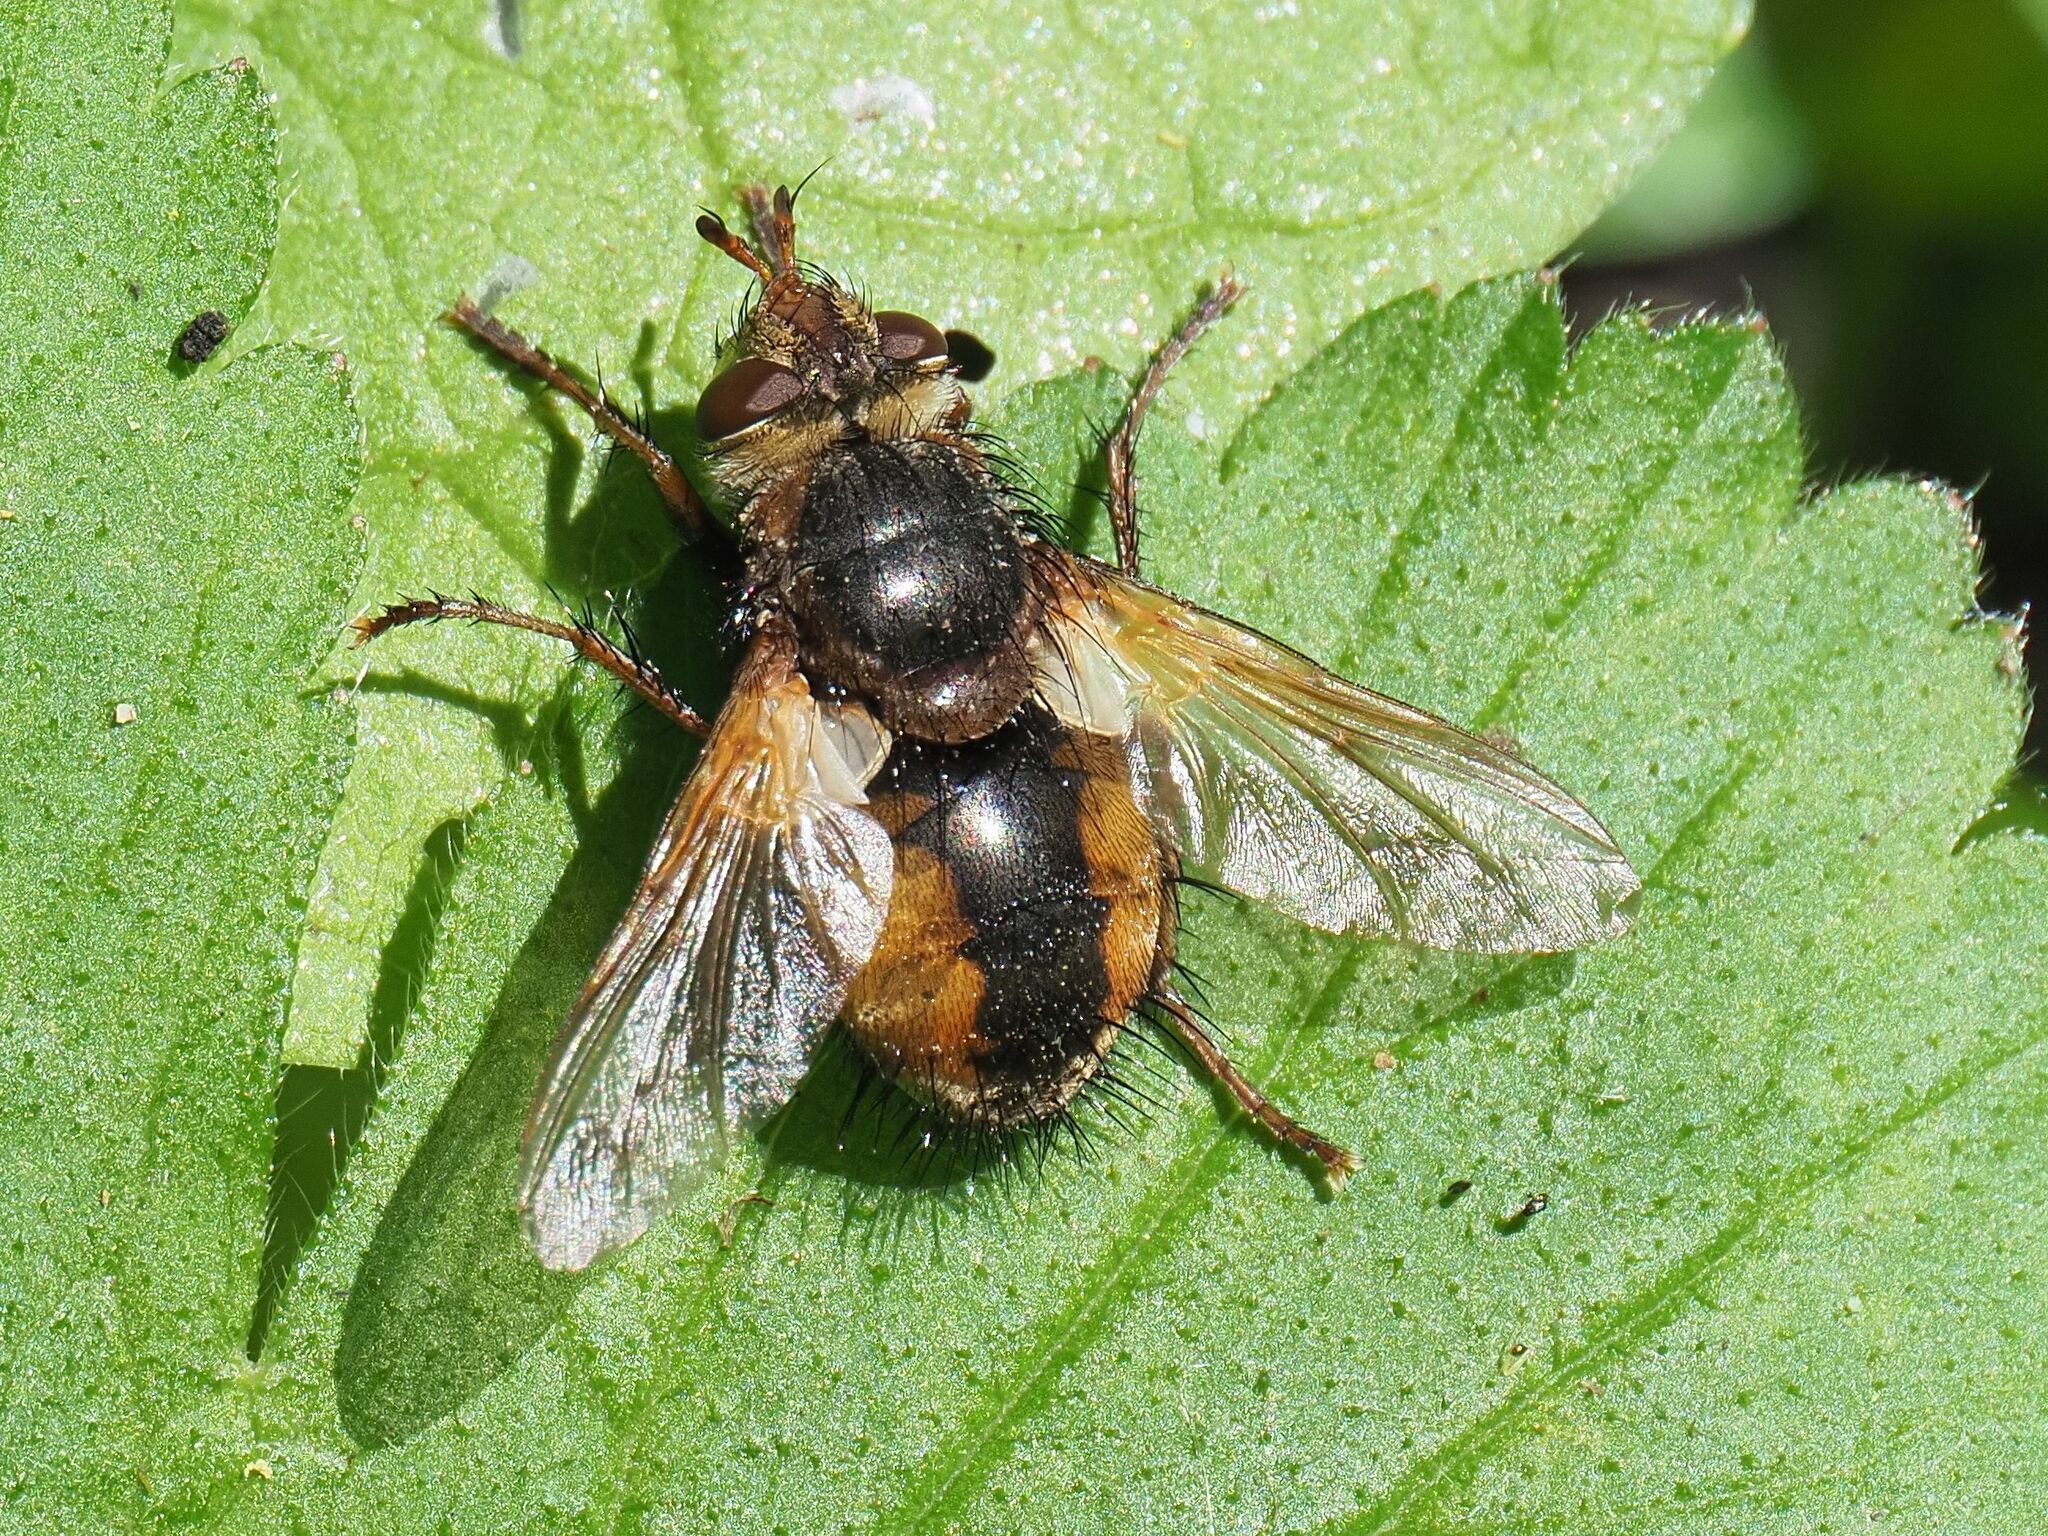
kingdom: Animalia
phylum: Arthropoda
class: Insecta
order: Diptera
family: Tachinidae
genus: Tachina
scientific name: Tachina fera
